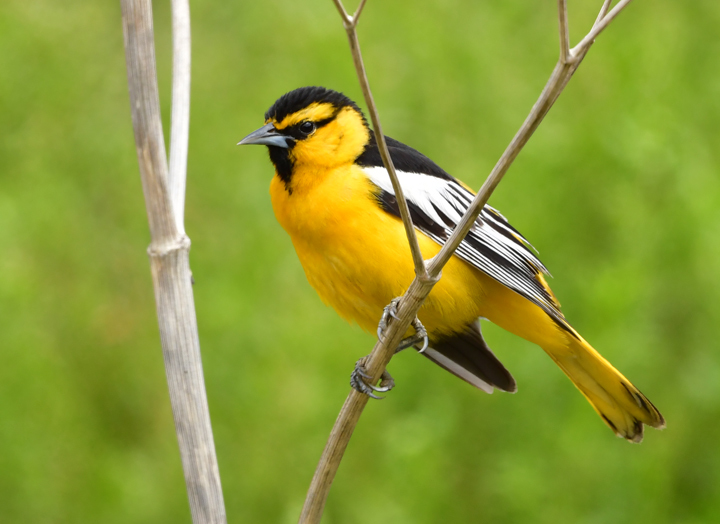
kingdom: Animalia
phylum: Chordata
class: Aves
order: Passeriformes
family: Icteridae
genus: Icterus
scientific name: Icterus bullockii
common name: Bullock's oriole
